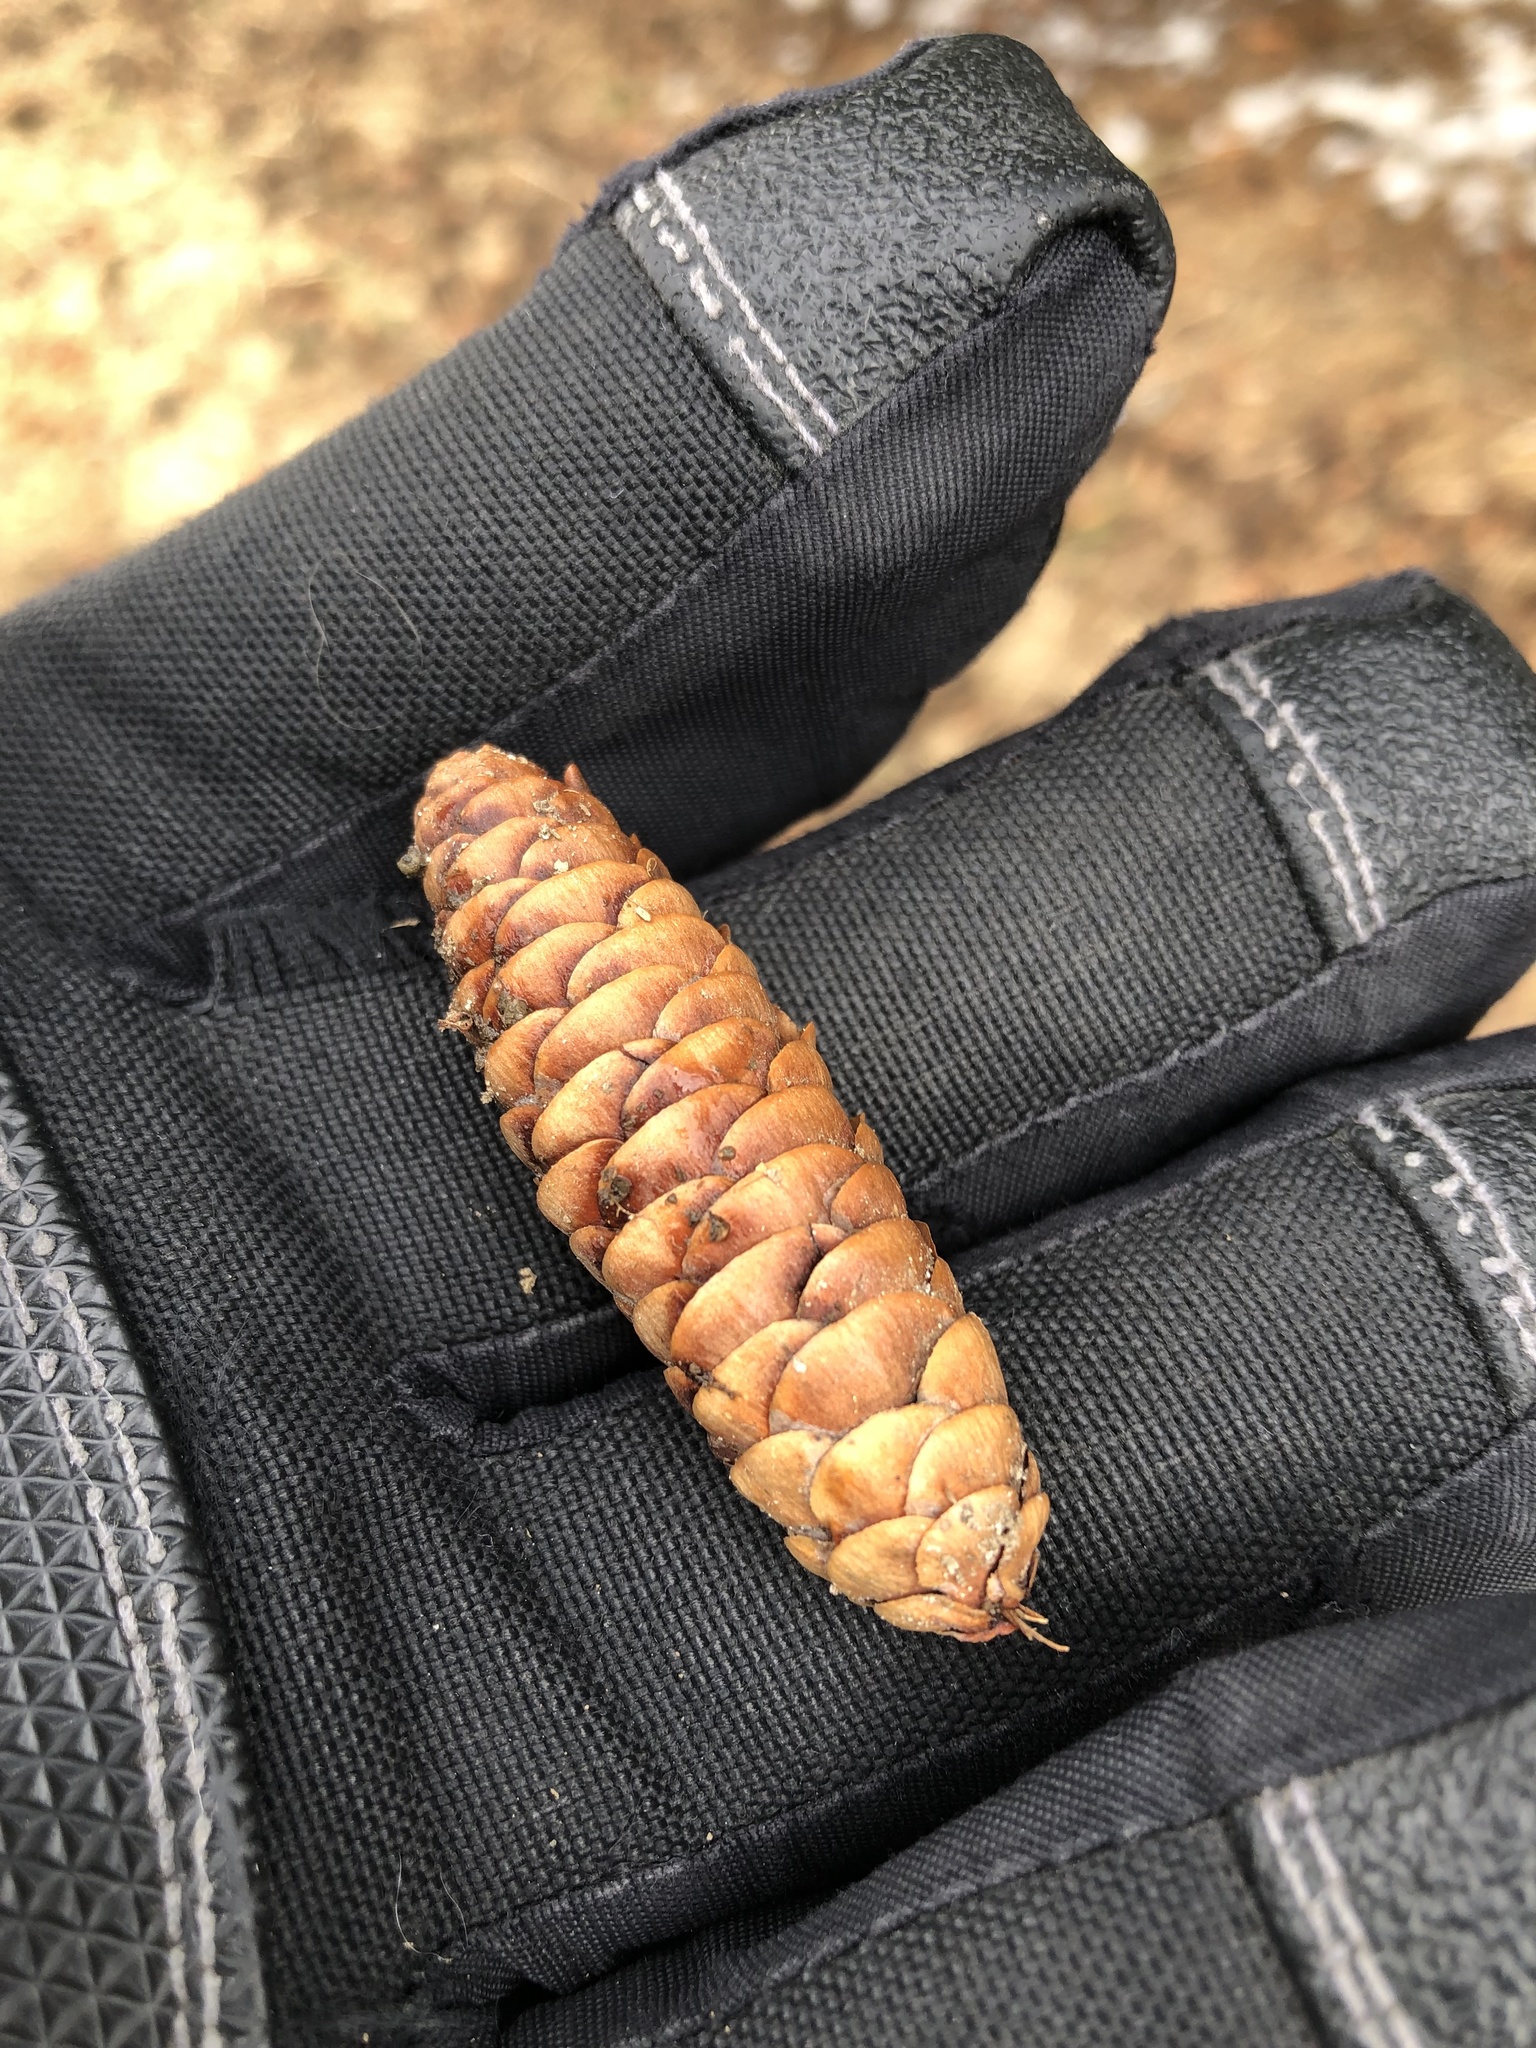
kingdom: Plantae
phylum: Tracheophyta
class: Pinopsida
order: Pinales
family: Pinaceae
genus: Picea
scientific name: Picea glauca
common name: White spruce
